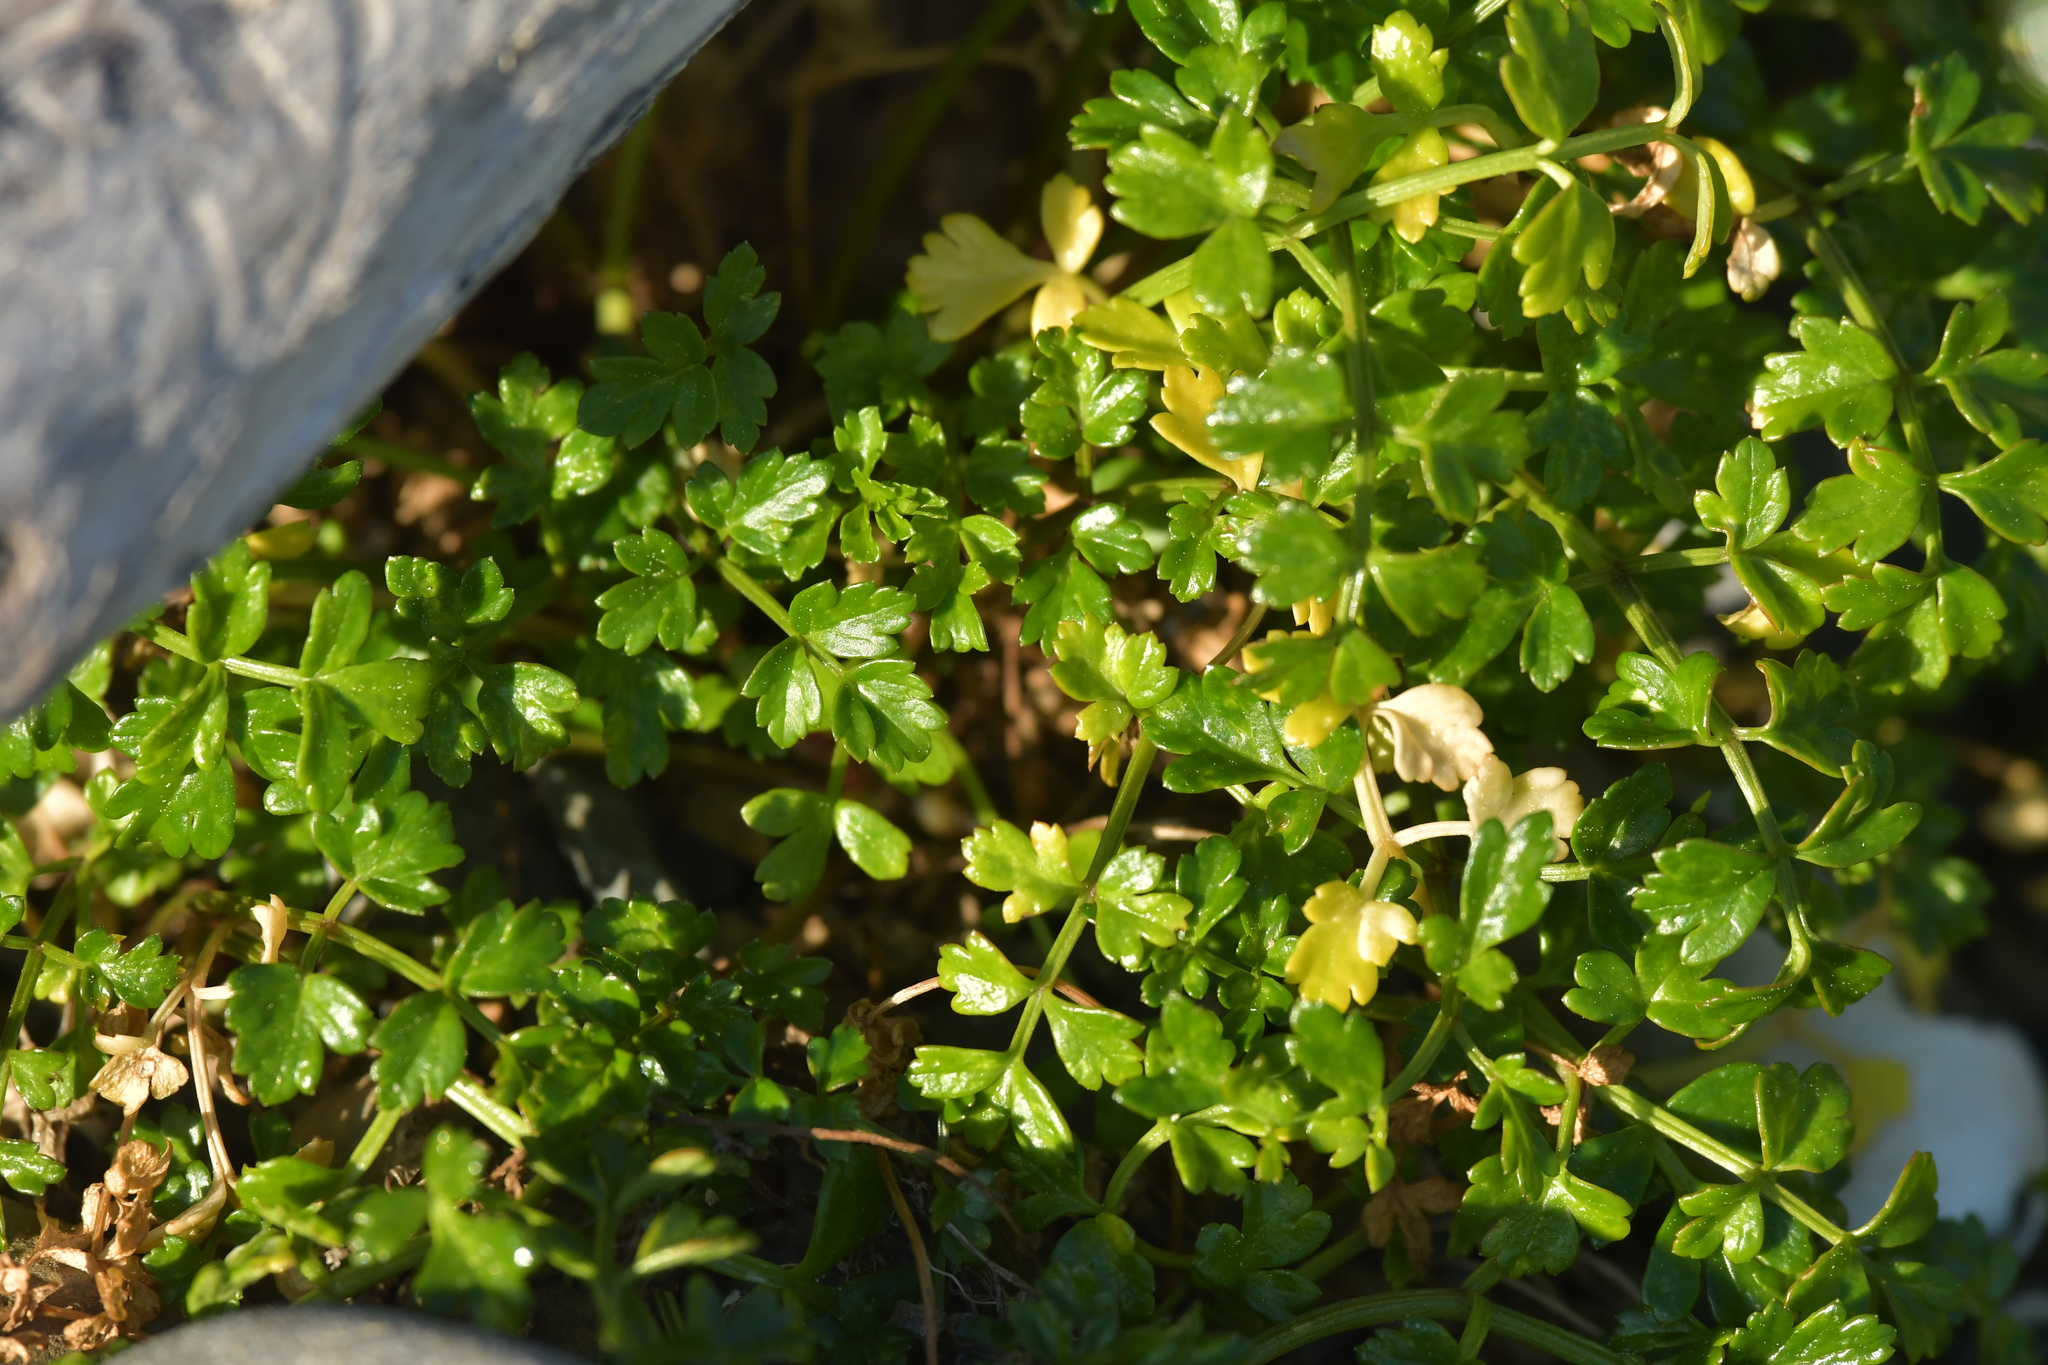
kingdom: Plantae
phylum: Tracheophyta
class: Magnoliopsida
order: Apiales
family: Apiaceae
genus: Apium
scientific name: Apium prostratum
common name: Prostrate marshwort
